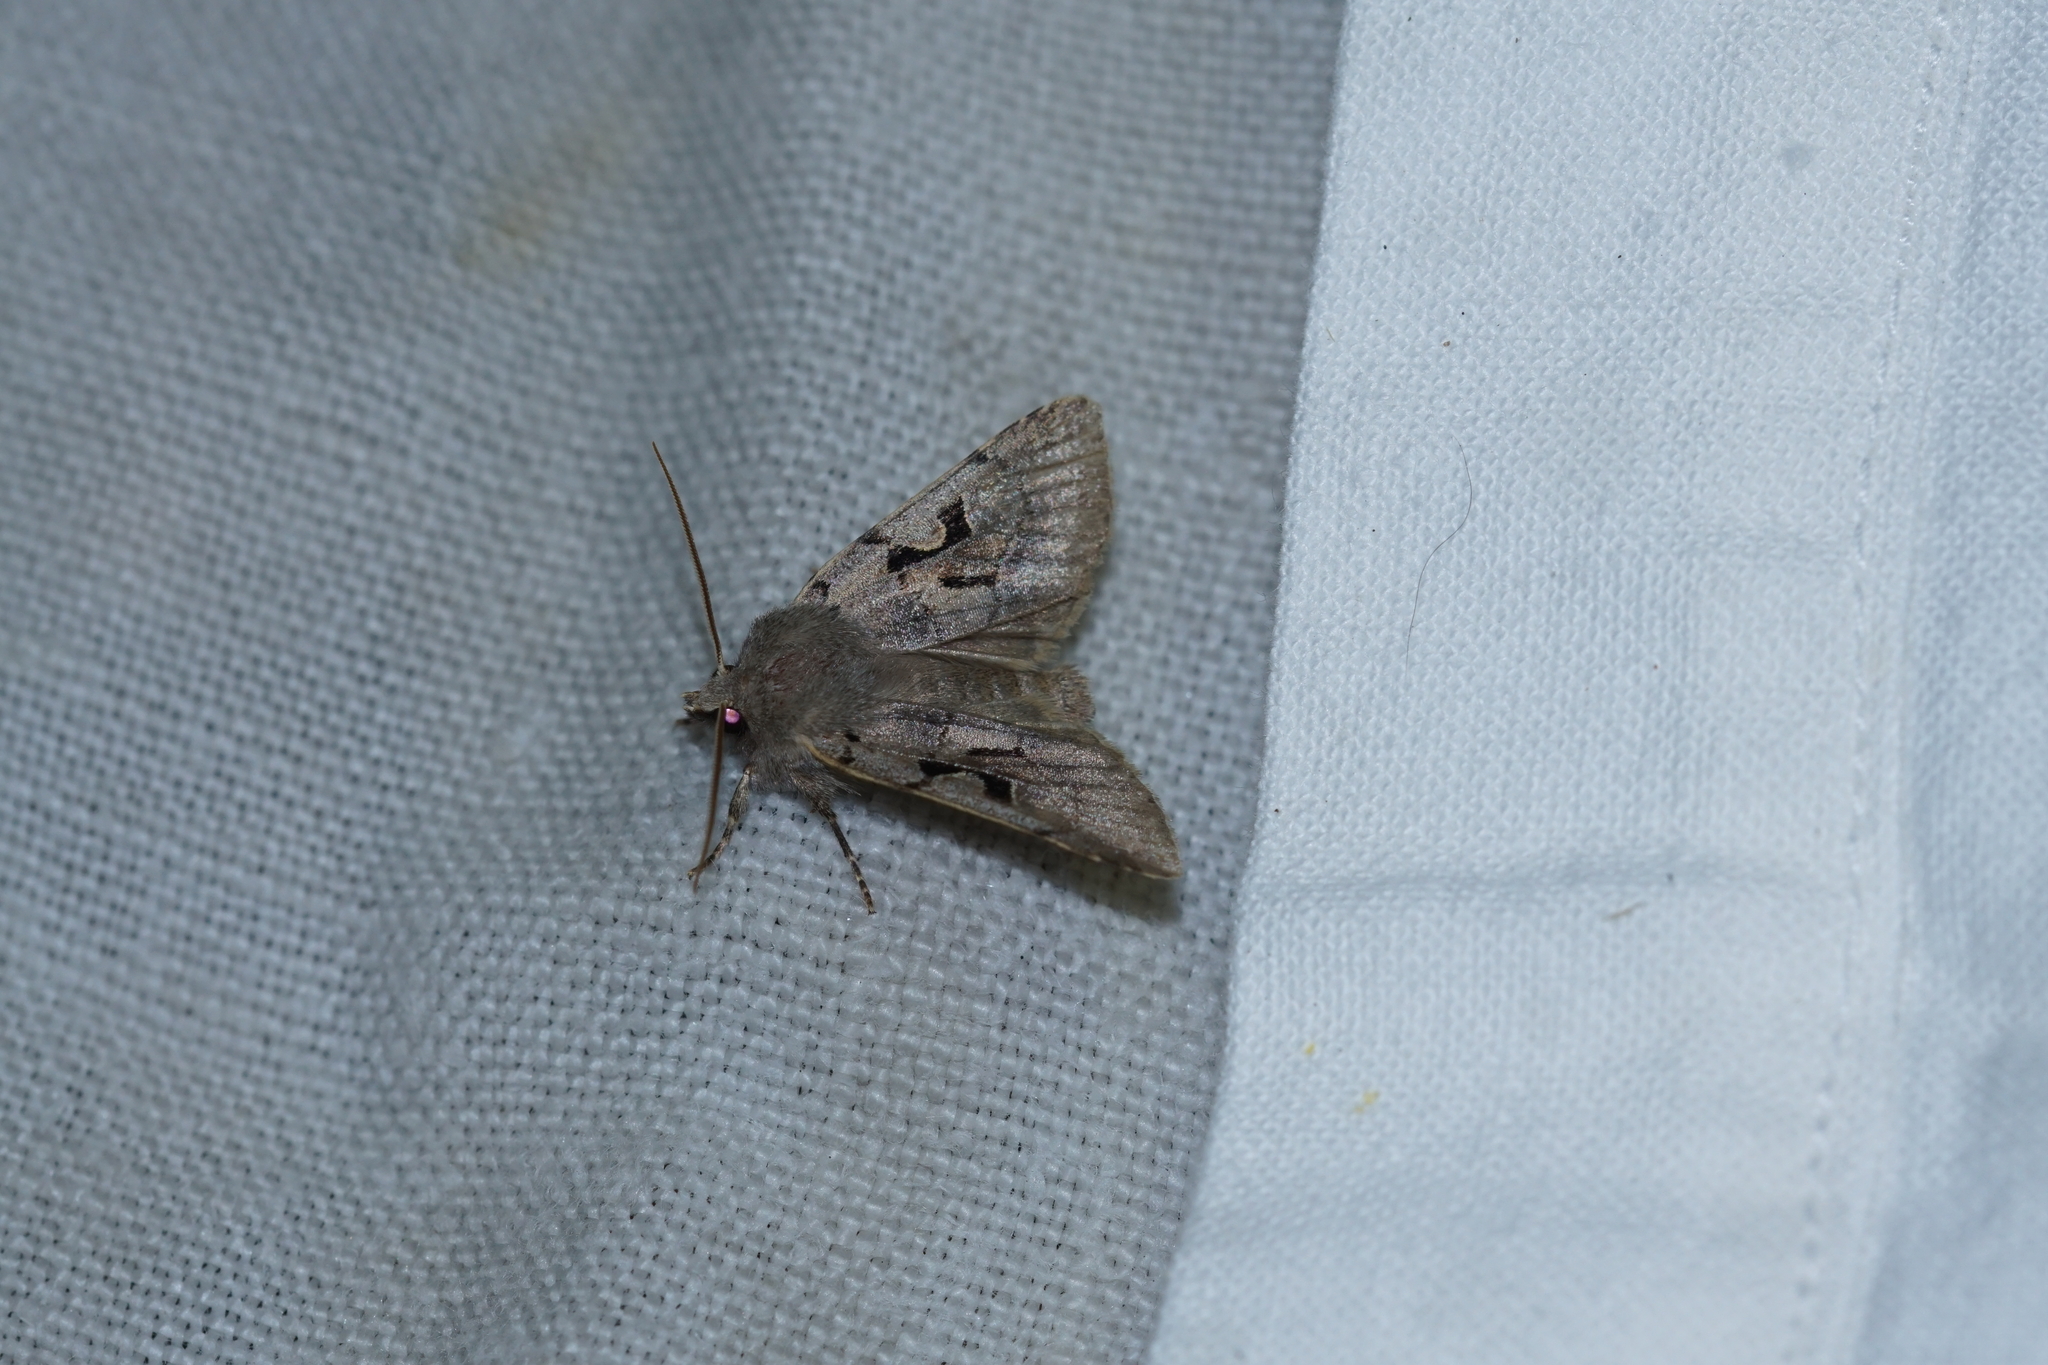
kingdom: Animalia
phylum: Arthropoda
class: Insecta
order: Lepidoptera
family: Noctuidae
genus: Orthosia
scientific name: Orthosia gothica
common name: Hebrew character
